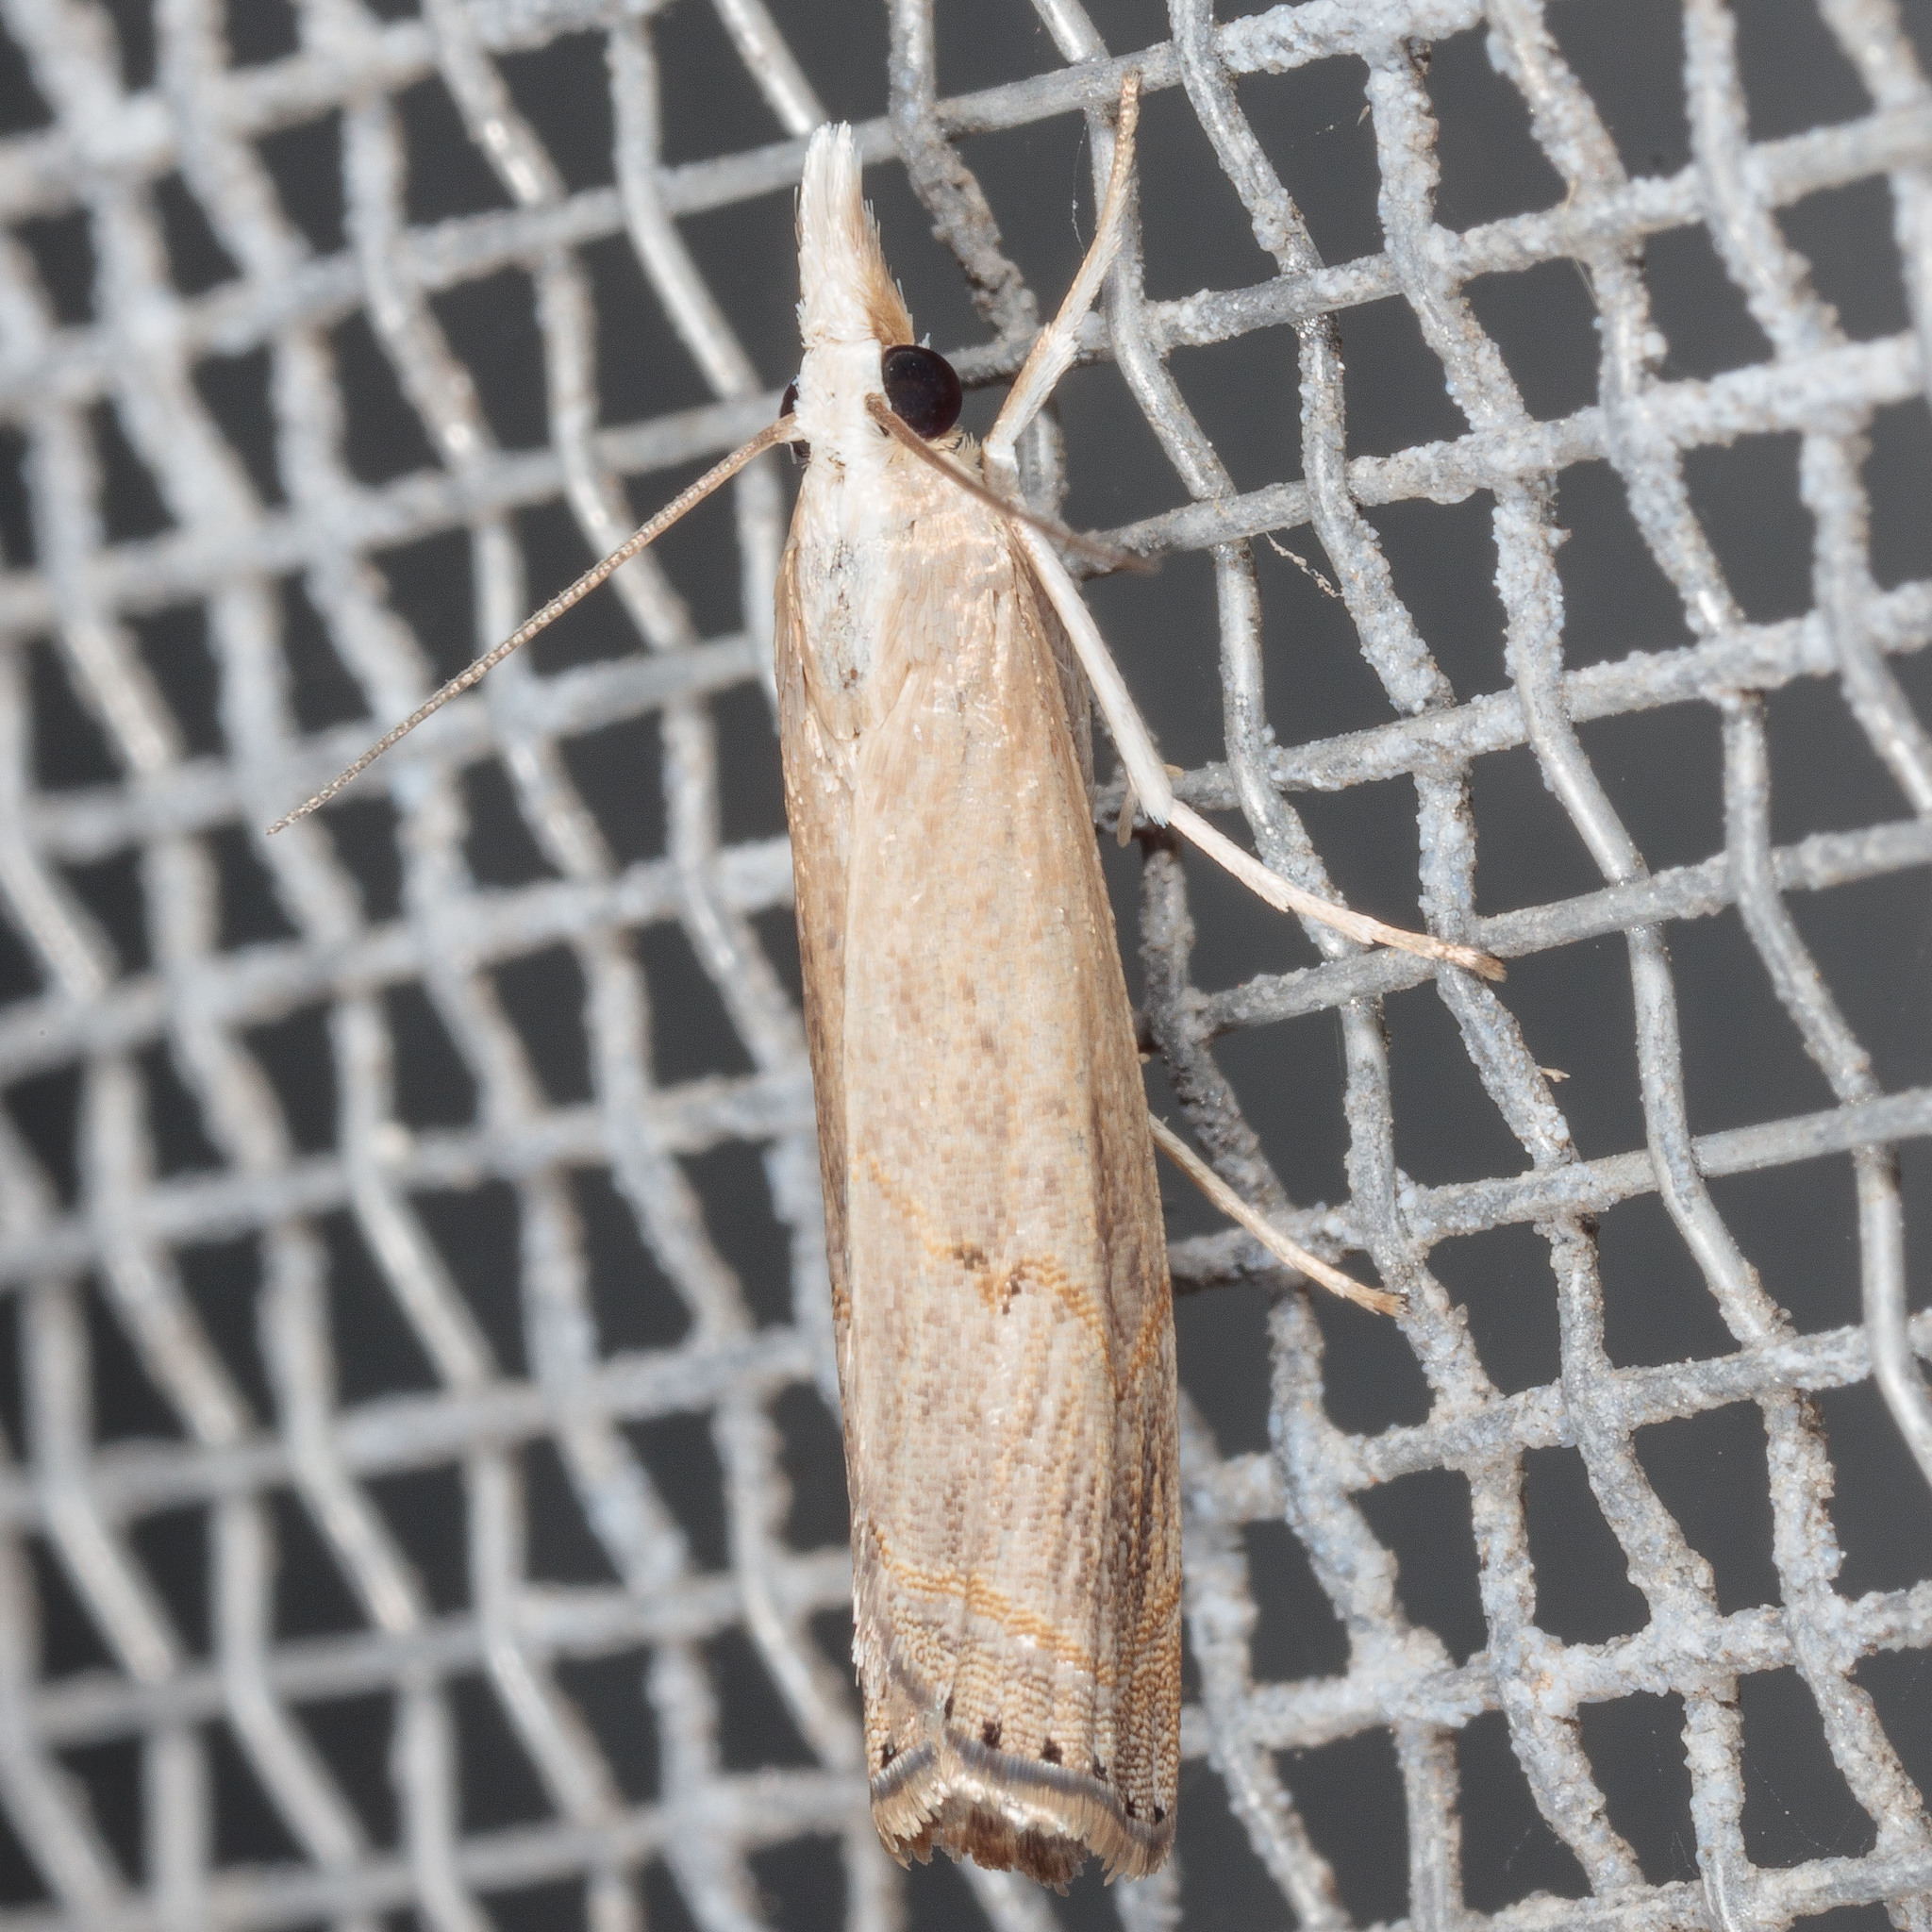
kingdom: Animalia
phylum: Arthropoda
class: Insecta
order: Lepidoptera
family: Crambidae
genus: Parapediasia
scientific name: Parapediasia teterellus
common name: Bluegrass webworm moth
